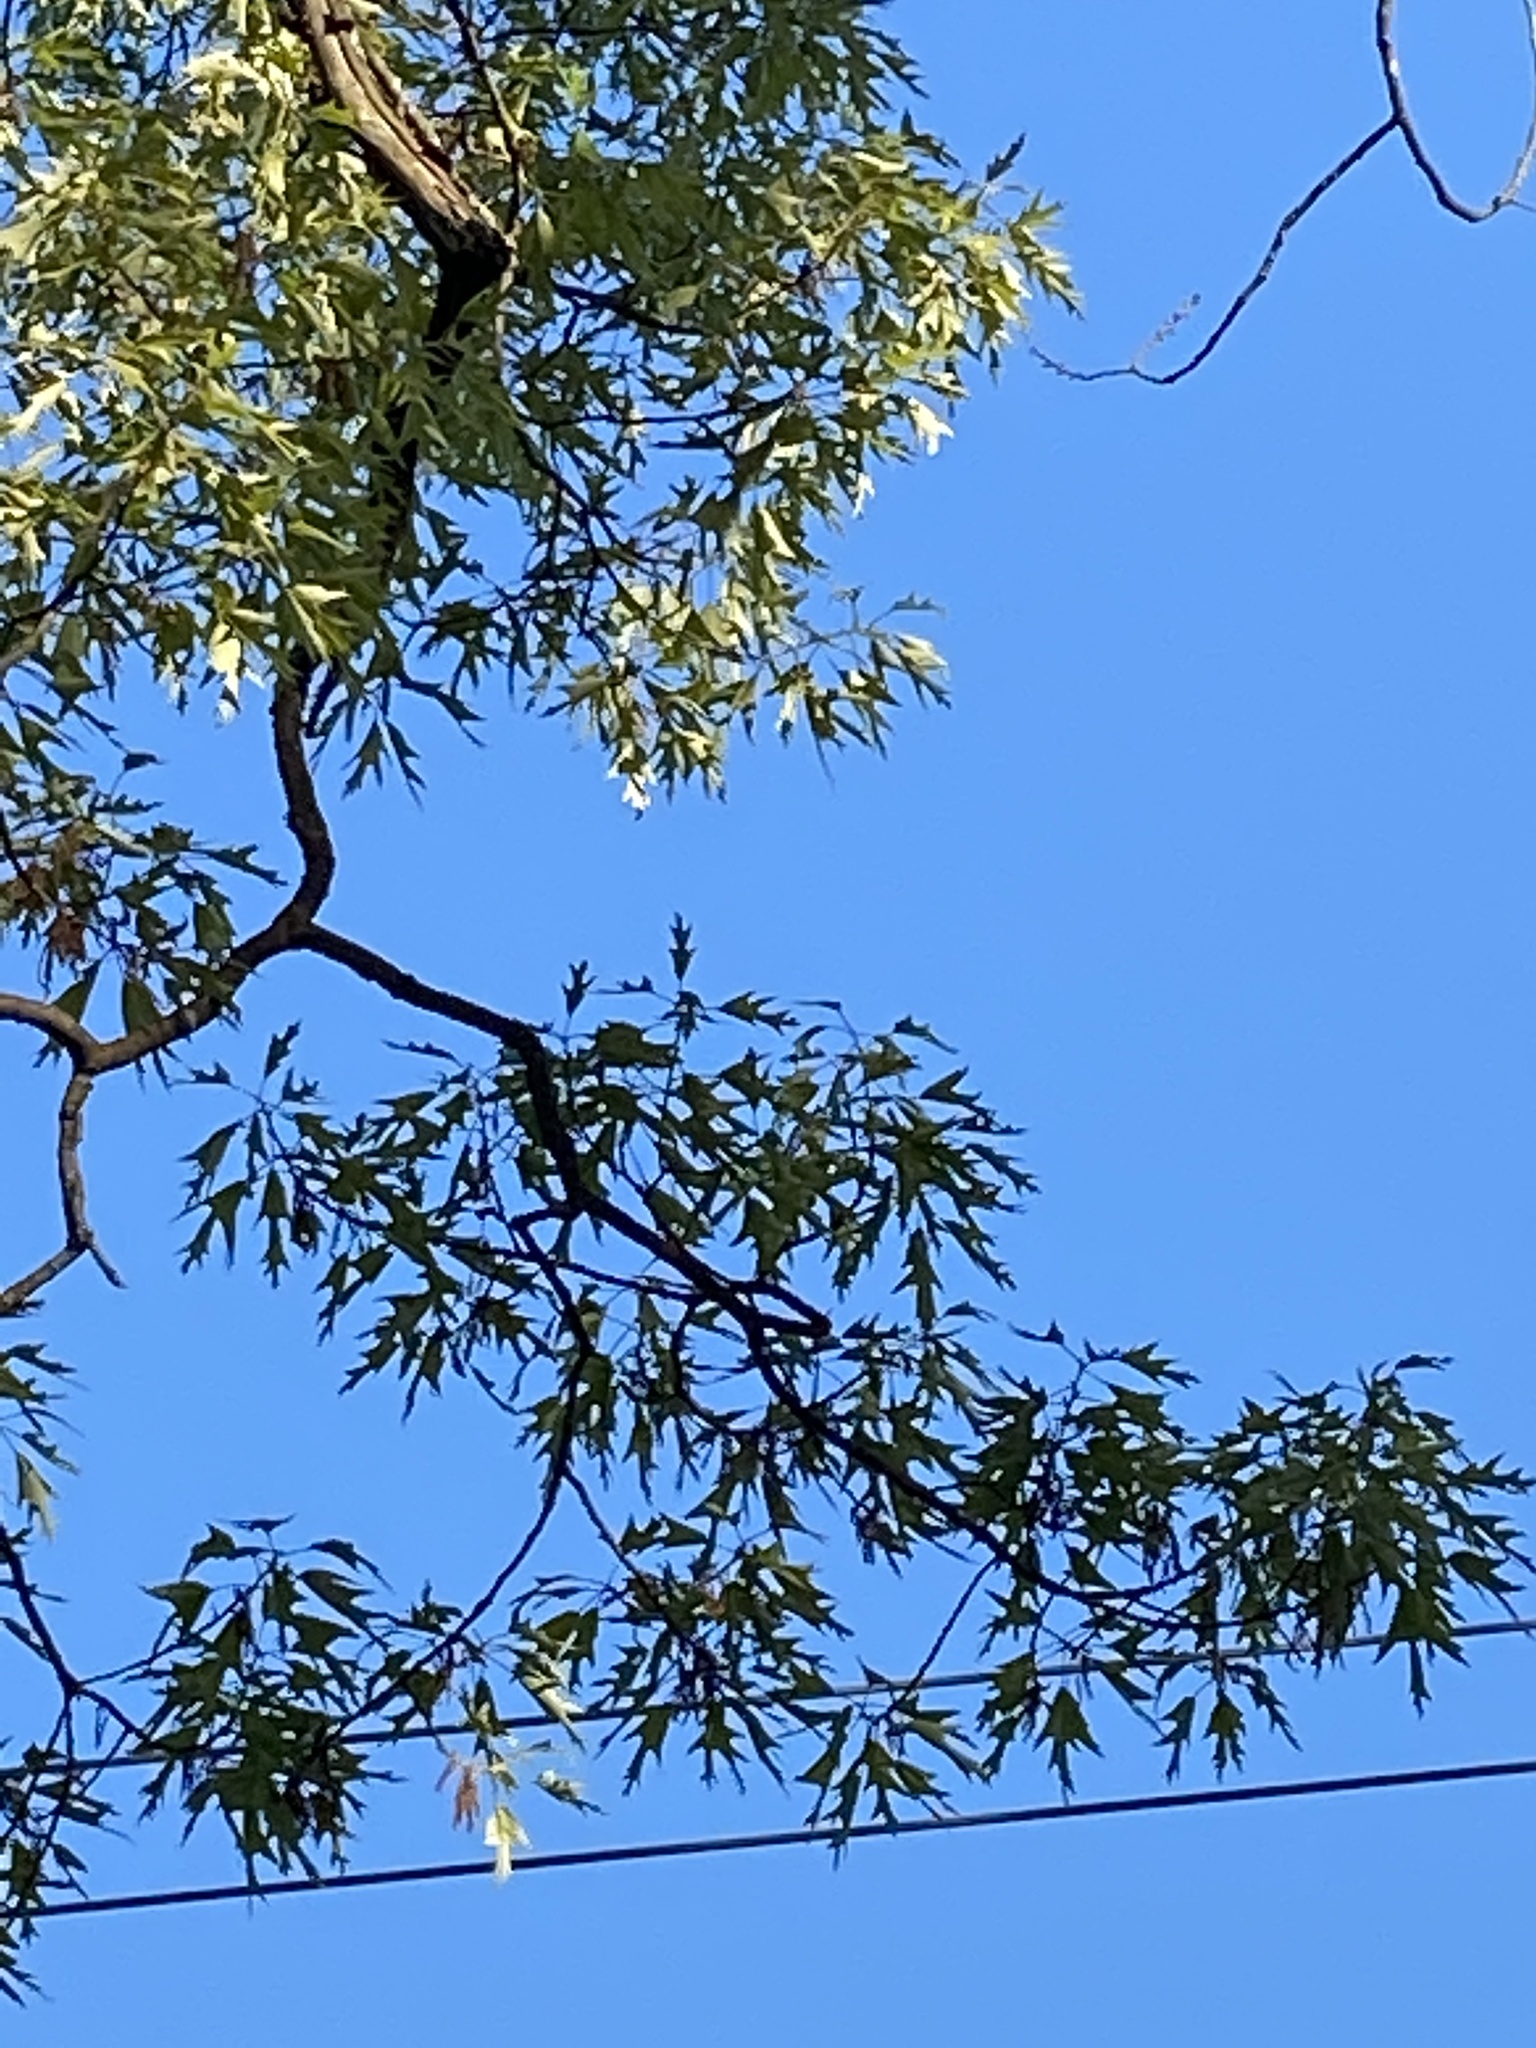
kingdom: Plantae
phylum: Tracheophyta
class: Magnoliopsida
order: Fagales
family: Fagaceae
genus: Quercus
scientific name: Quercus falcata
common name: Southern red oak
